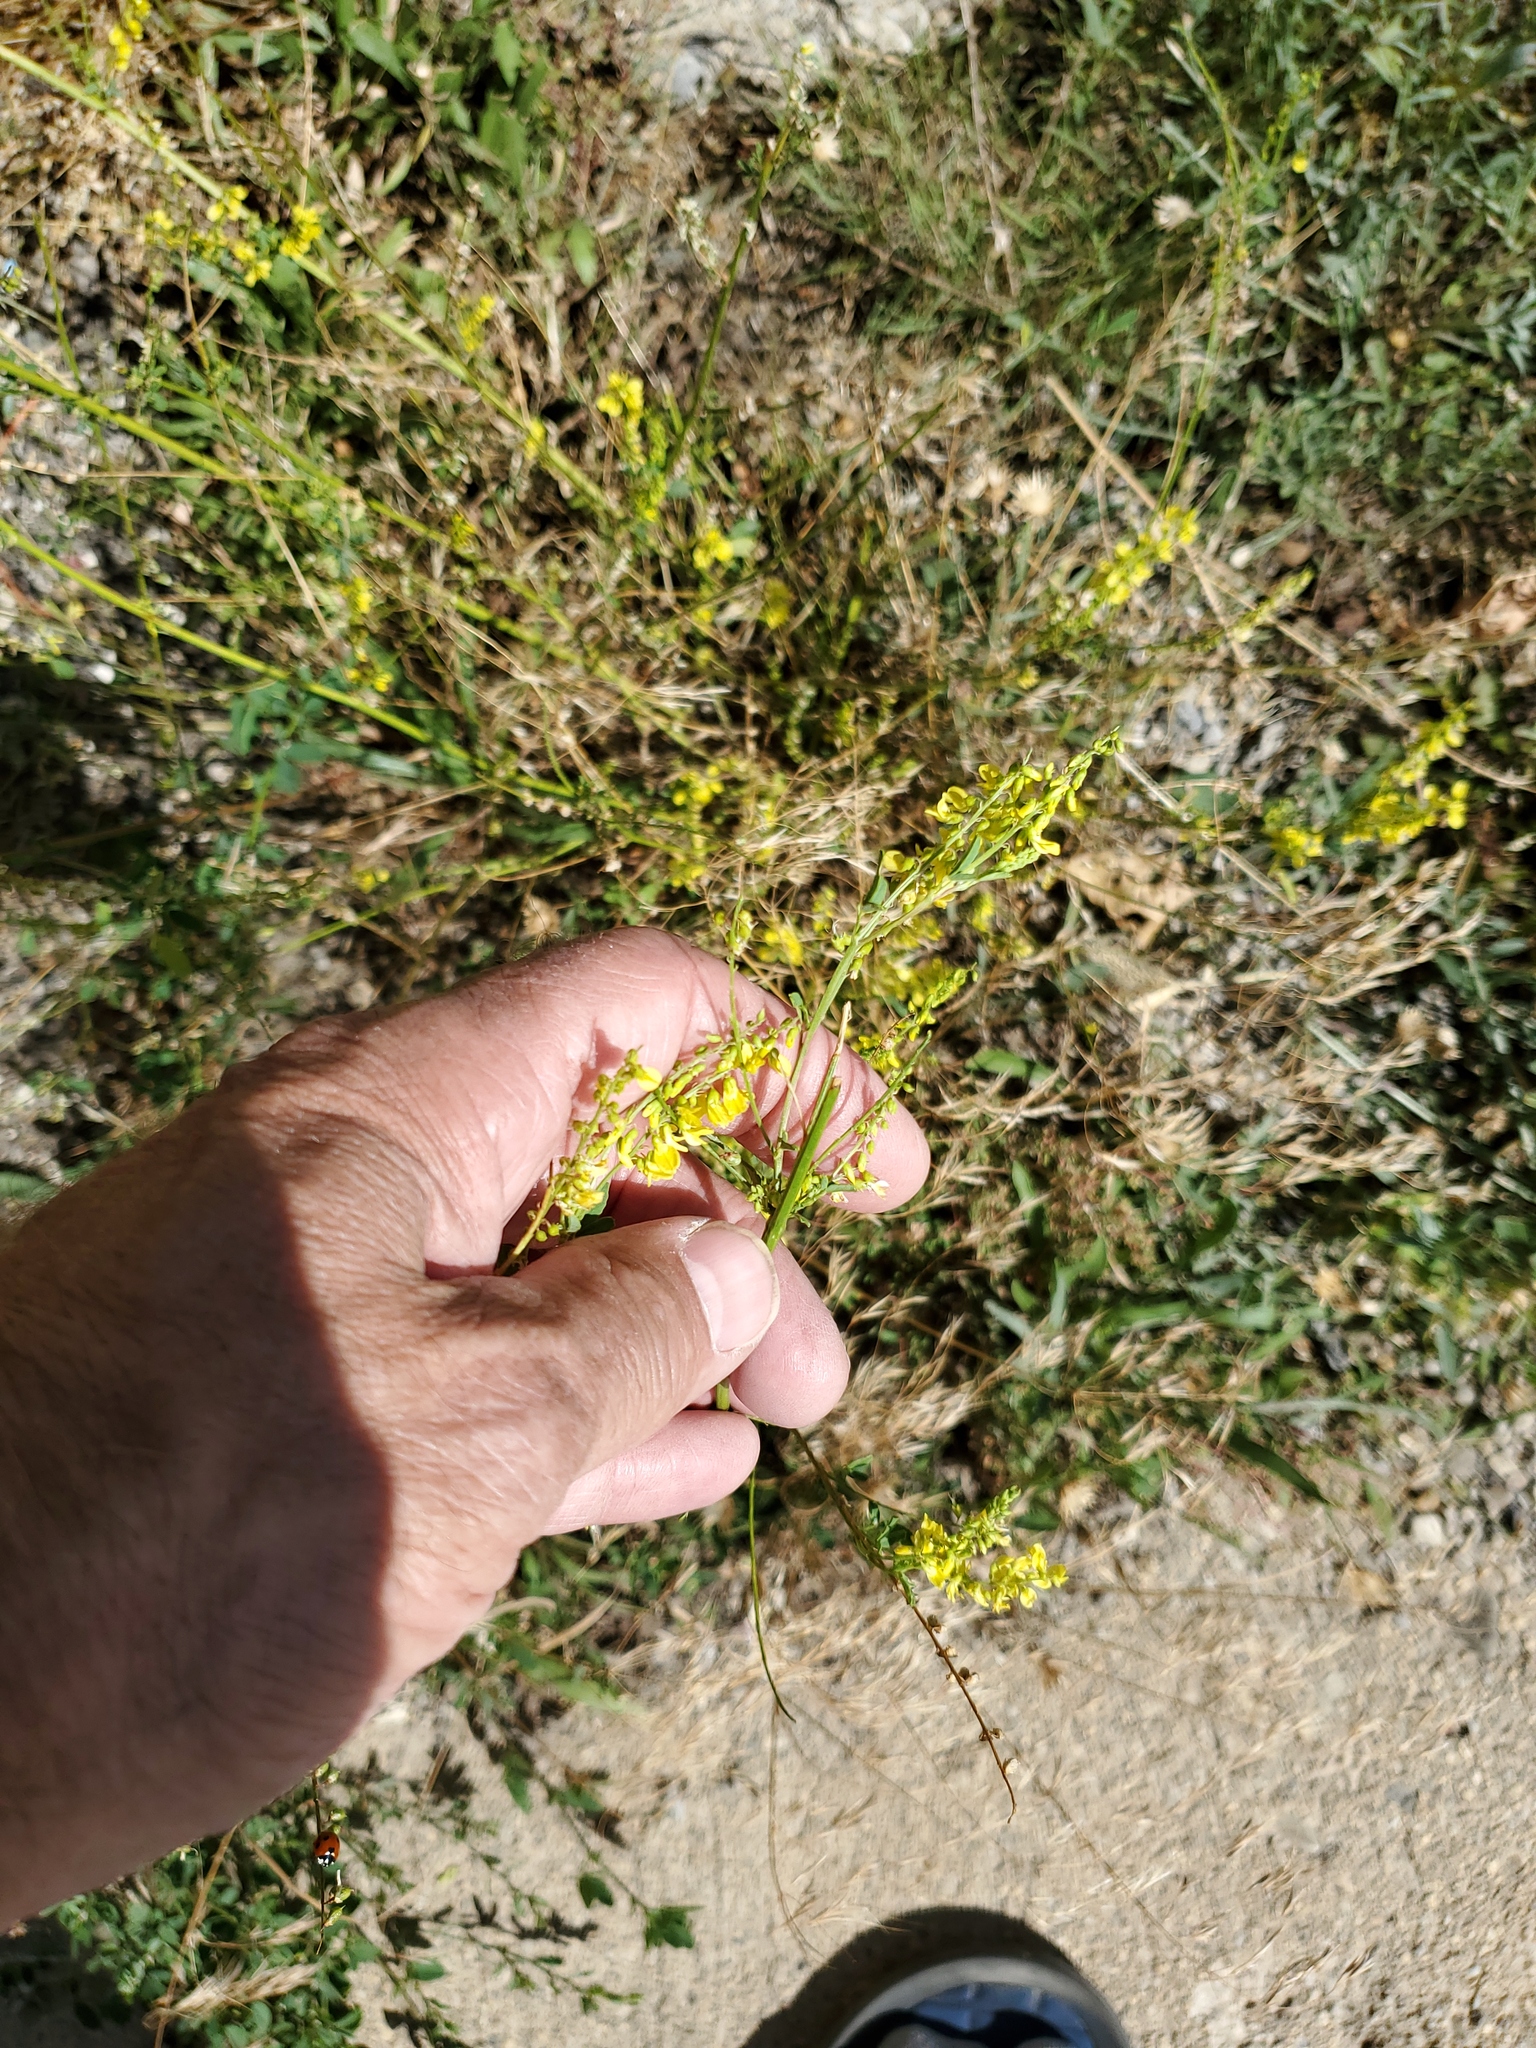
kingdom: Plantae
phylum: Tracheophyta
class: Magnoliopsida
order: Fabales
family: Fabaceae
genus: Melilotus
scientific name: Melilotus officinalis
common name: Sweetclover
